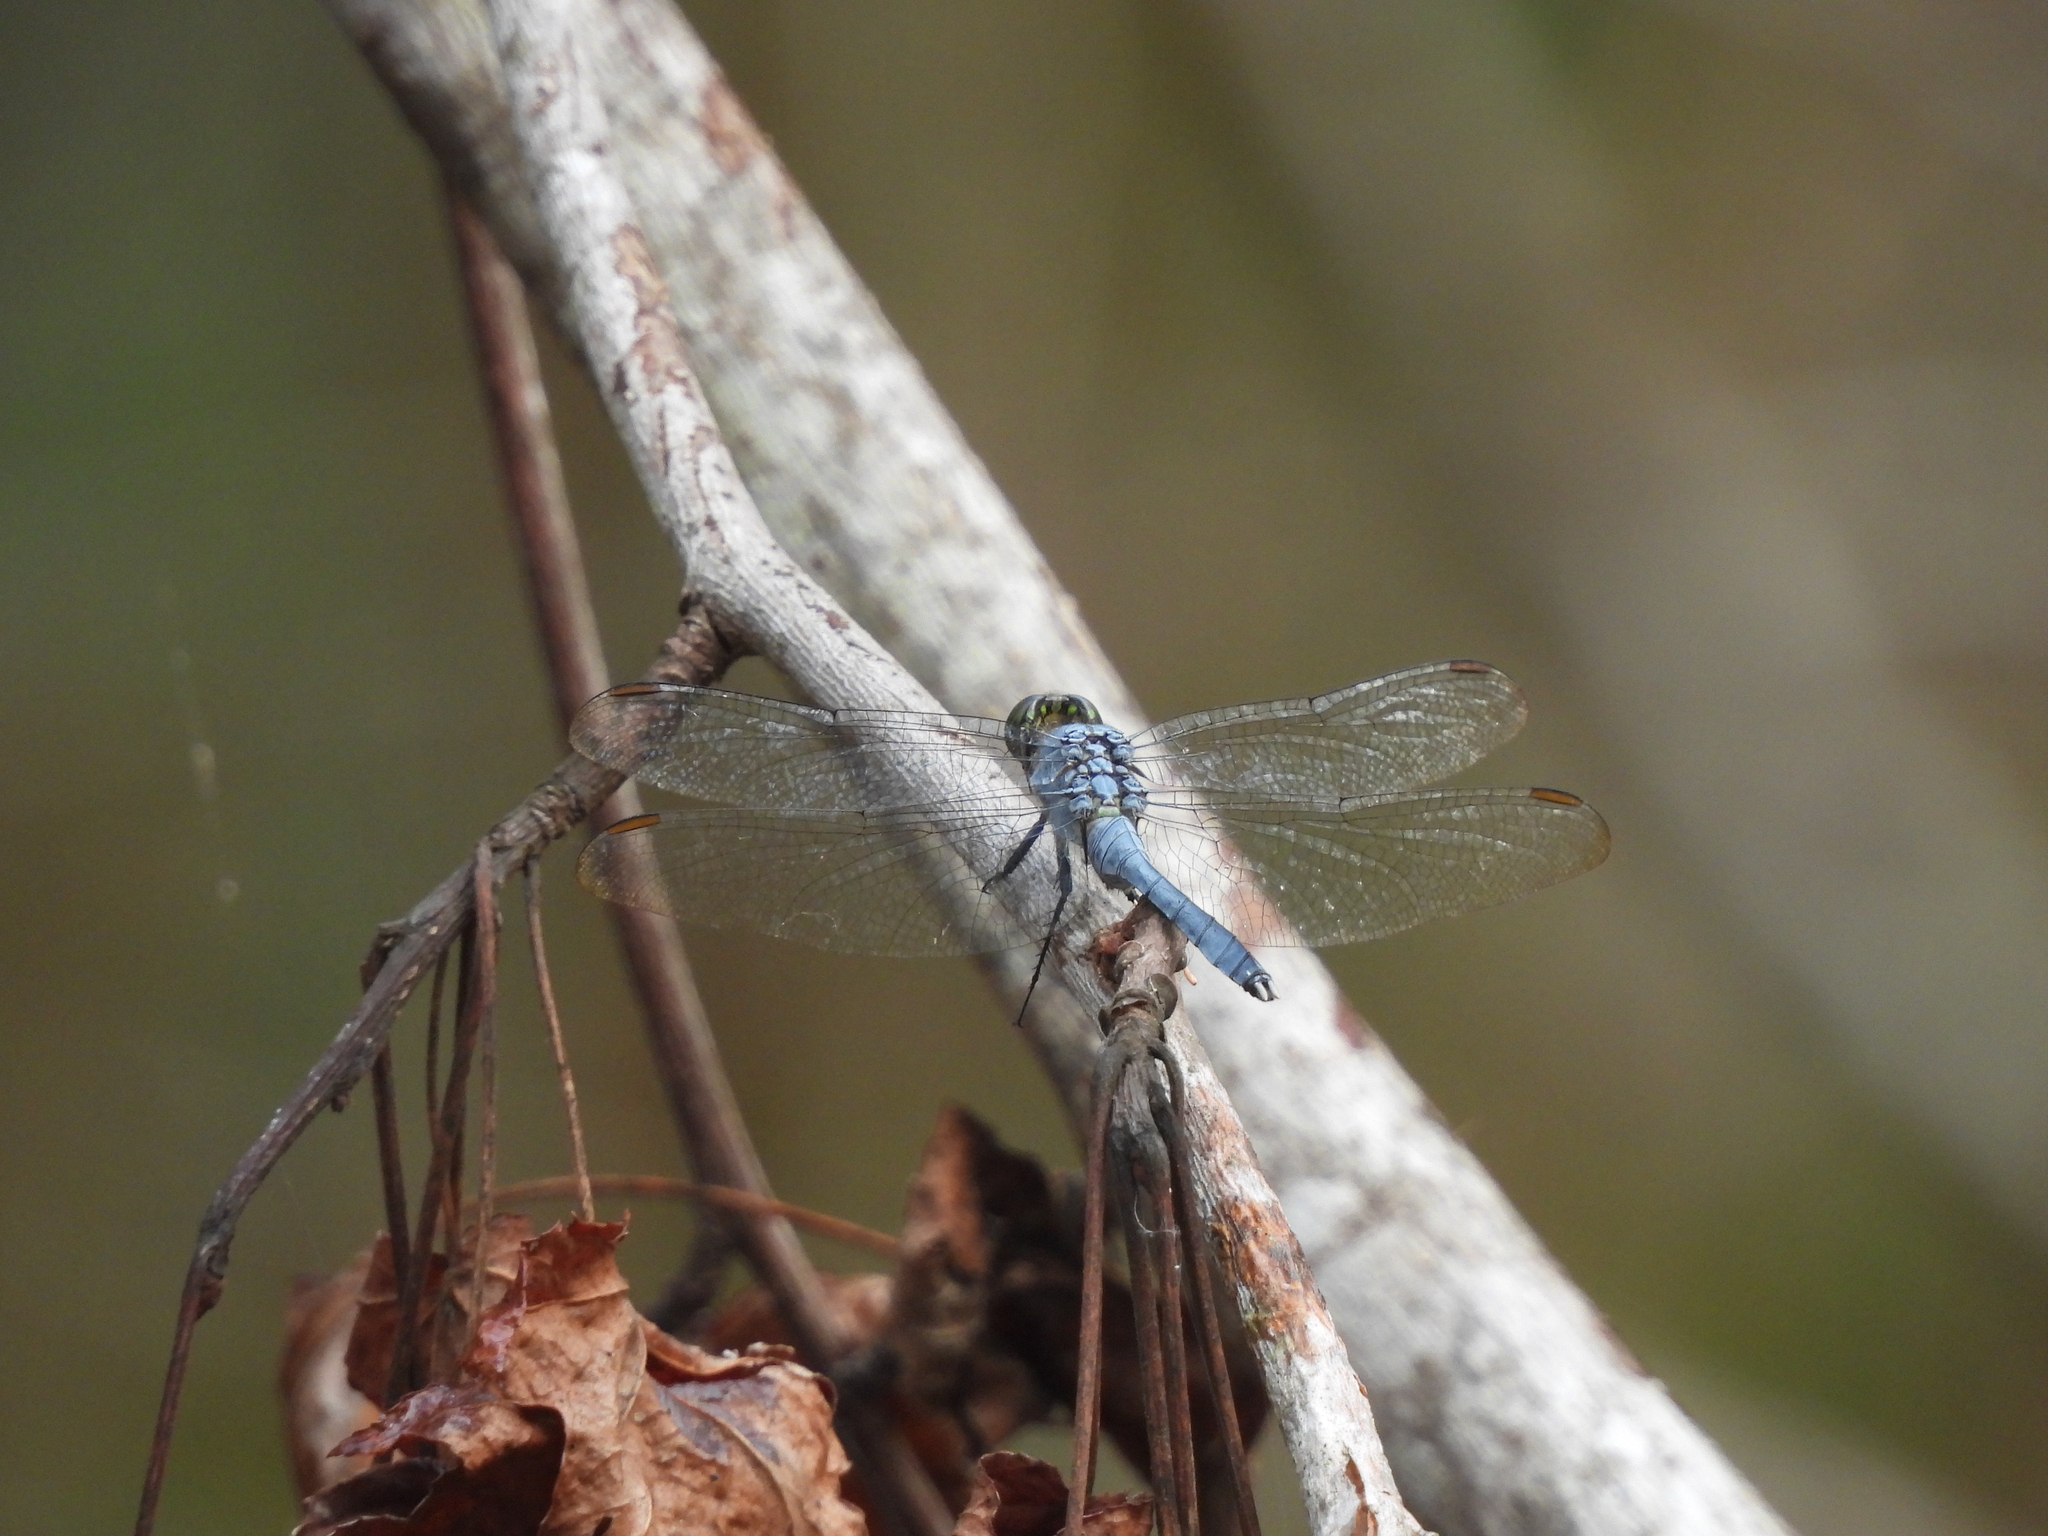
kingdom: Animalia
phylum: Arthropoda
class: Insecta
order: Odonata
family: Libellulidae
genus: Erythemis
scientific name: Erythemis simplicicollis
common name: Eastern pondhawk
